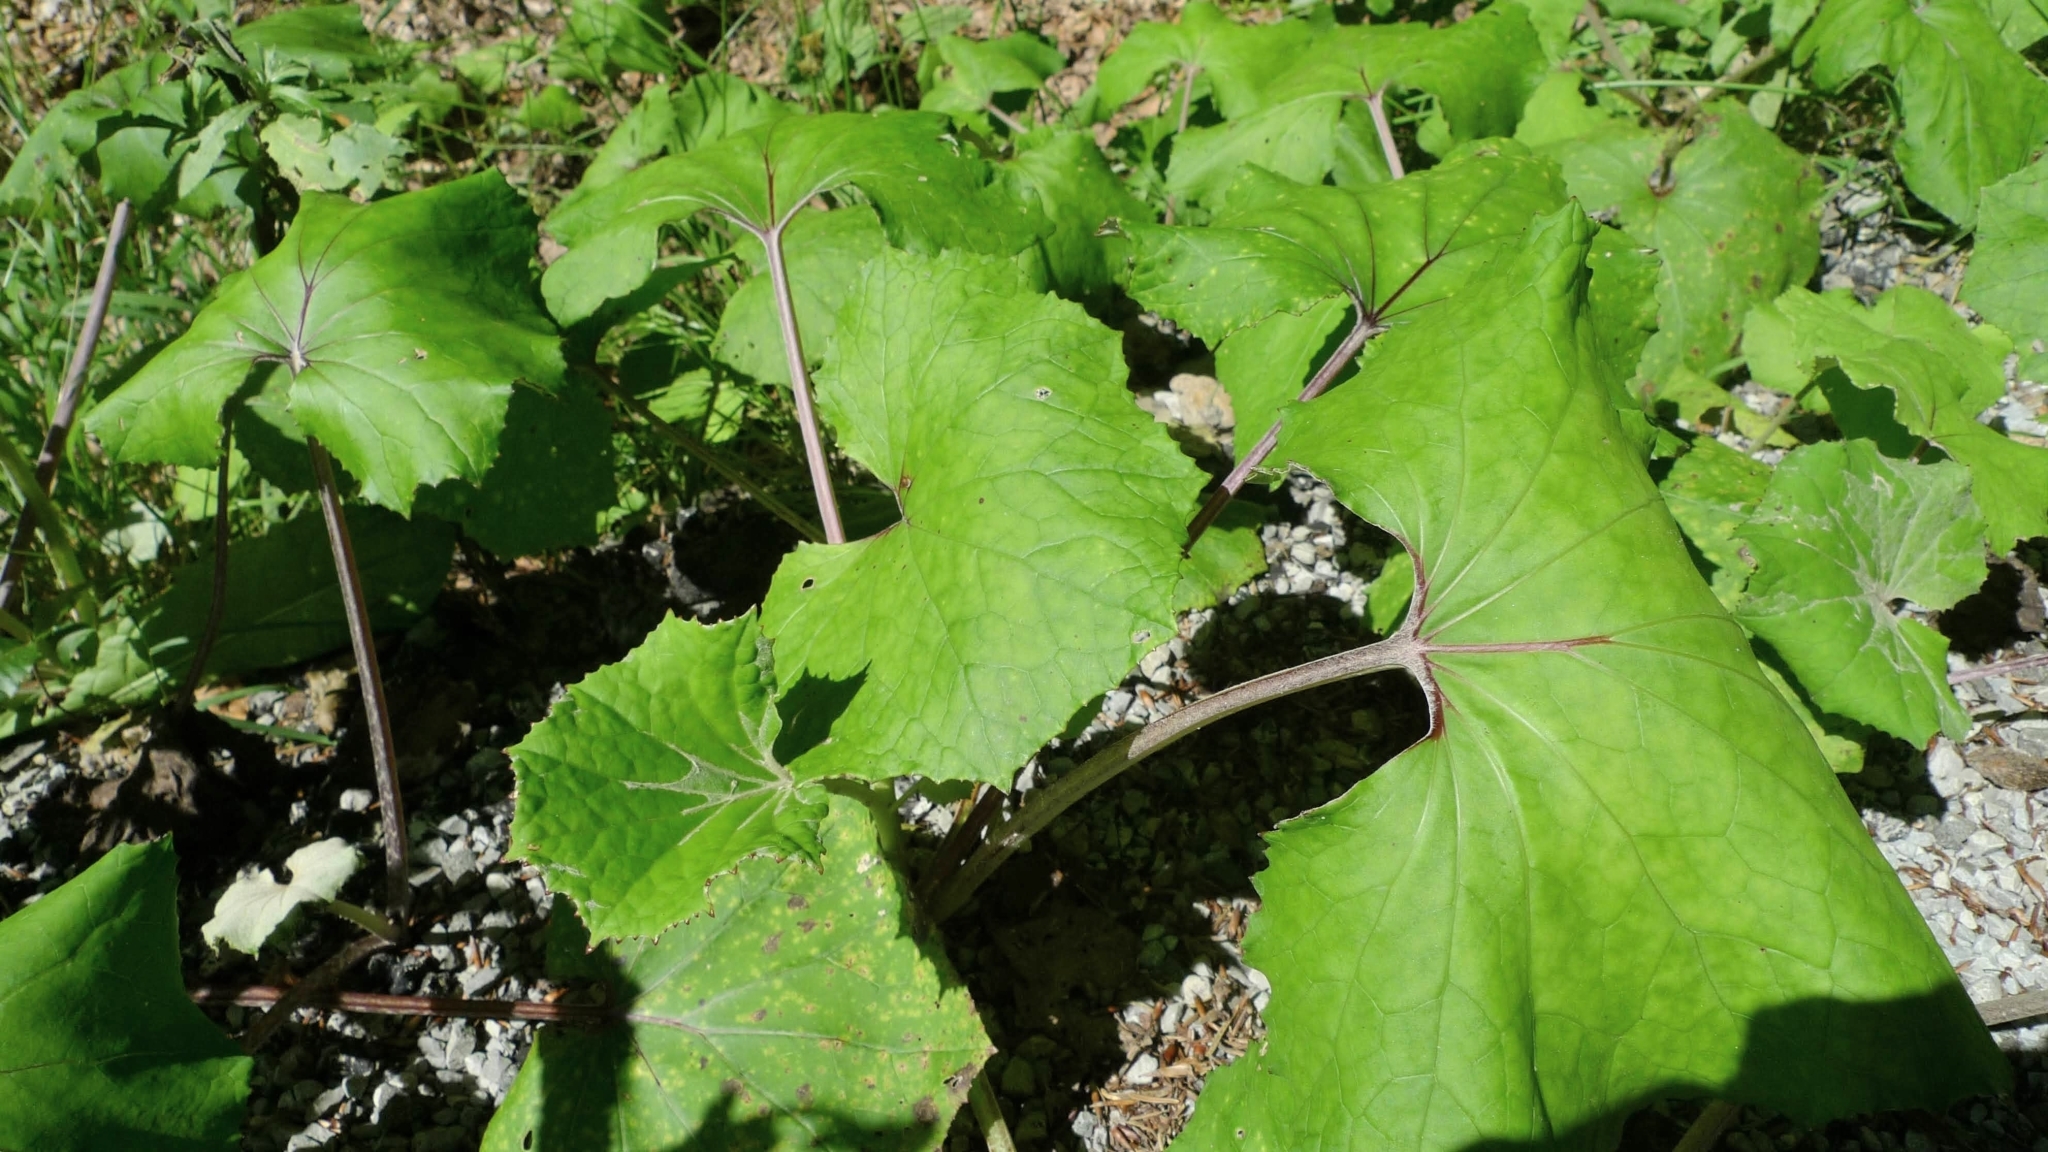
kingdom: Plantae
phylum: Tracheophyta
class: Magnoliopsida
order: Asterales
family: Asteraceae
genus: Tussilago
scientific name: Tussilago farfara
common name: Coltsfoot
